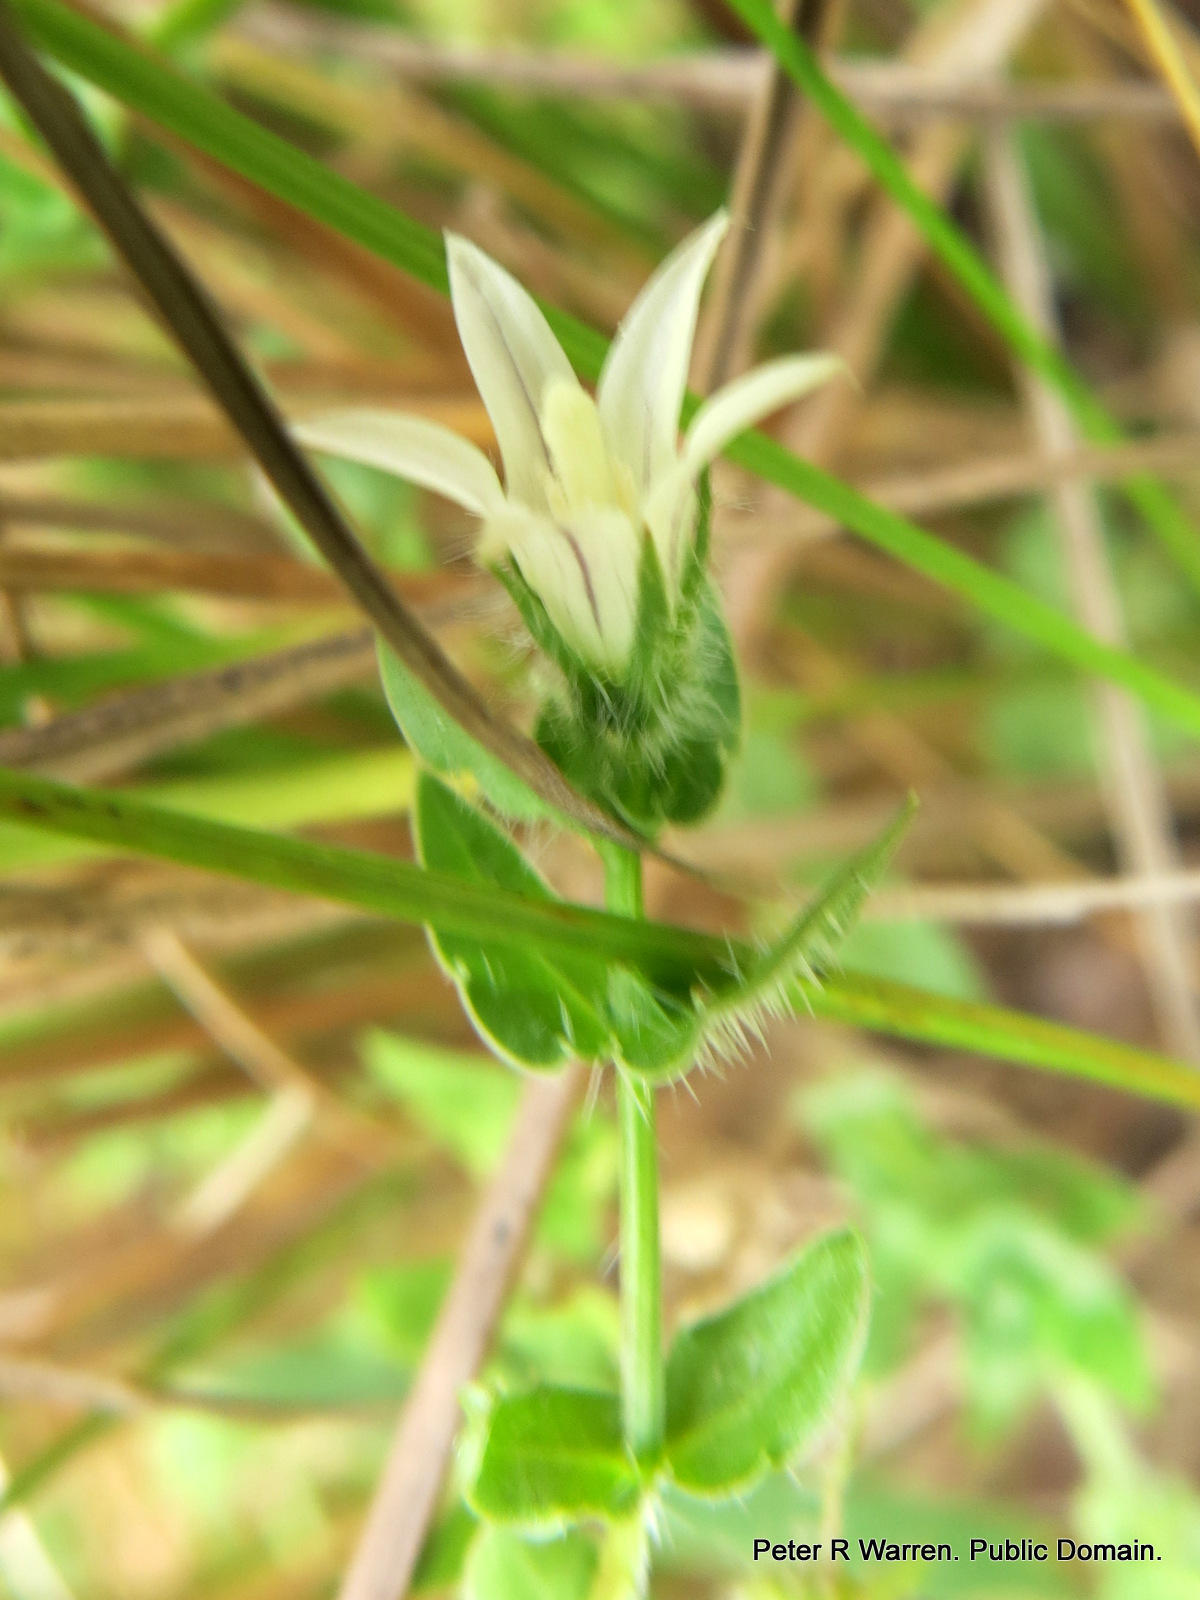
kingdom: Plantae
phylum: Tracheophyta
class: Magnoliopsida
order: Asterales
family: Campanulaceae
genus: Wahlenbergia
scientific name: Wahlenbergia madagascariensis
